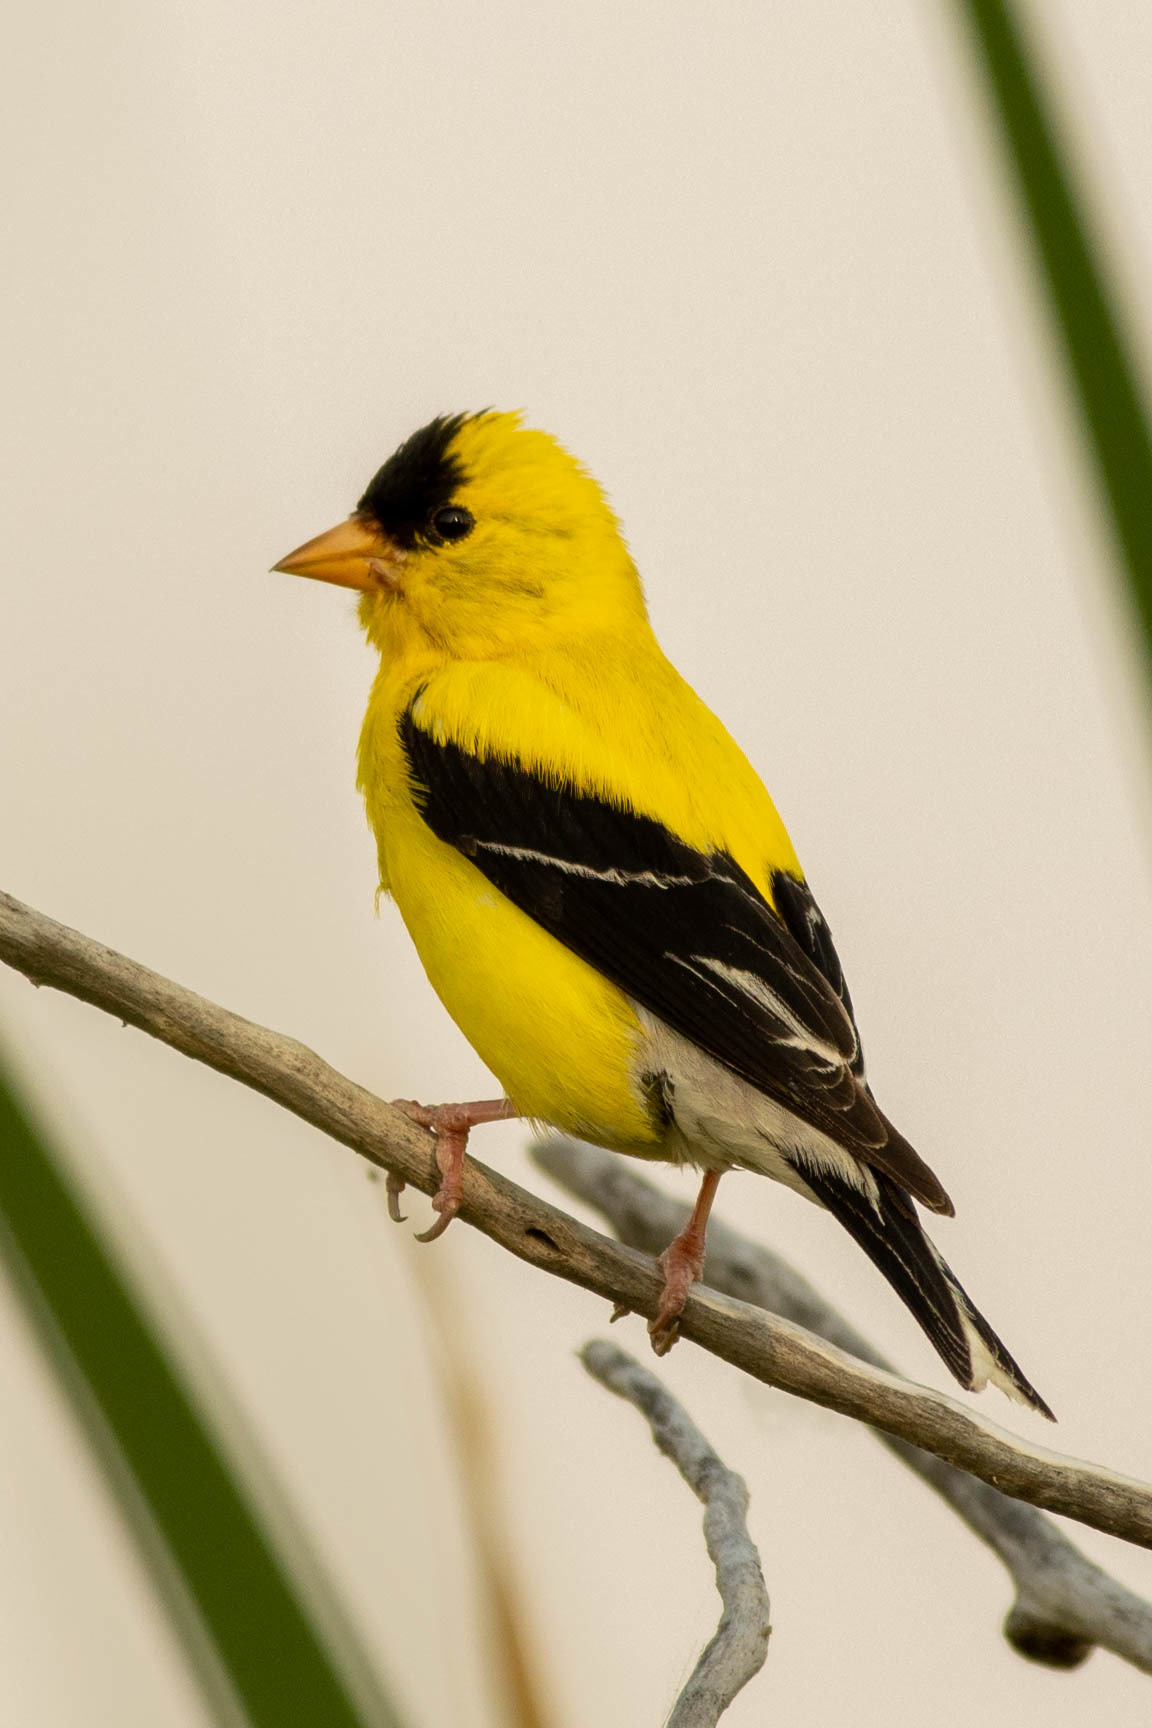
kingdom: Animalia
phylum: Chordata
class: Aves
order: Passeriformes
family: Fringillidae
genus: Spinus
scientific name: Spinus tristis
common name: American goldfinch
